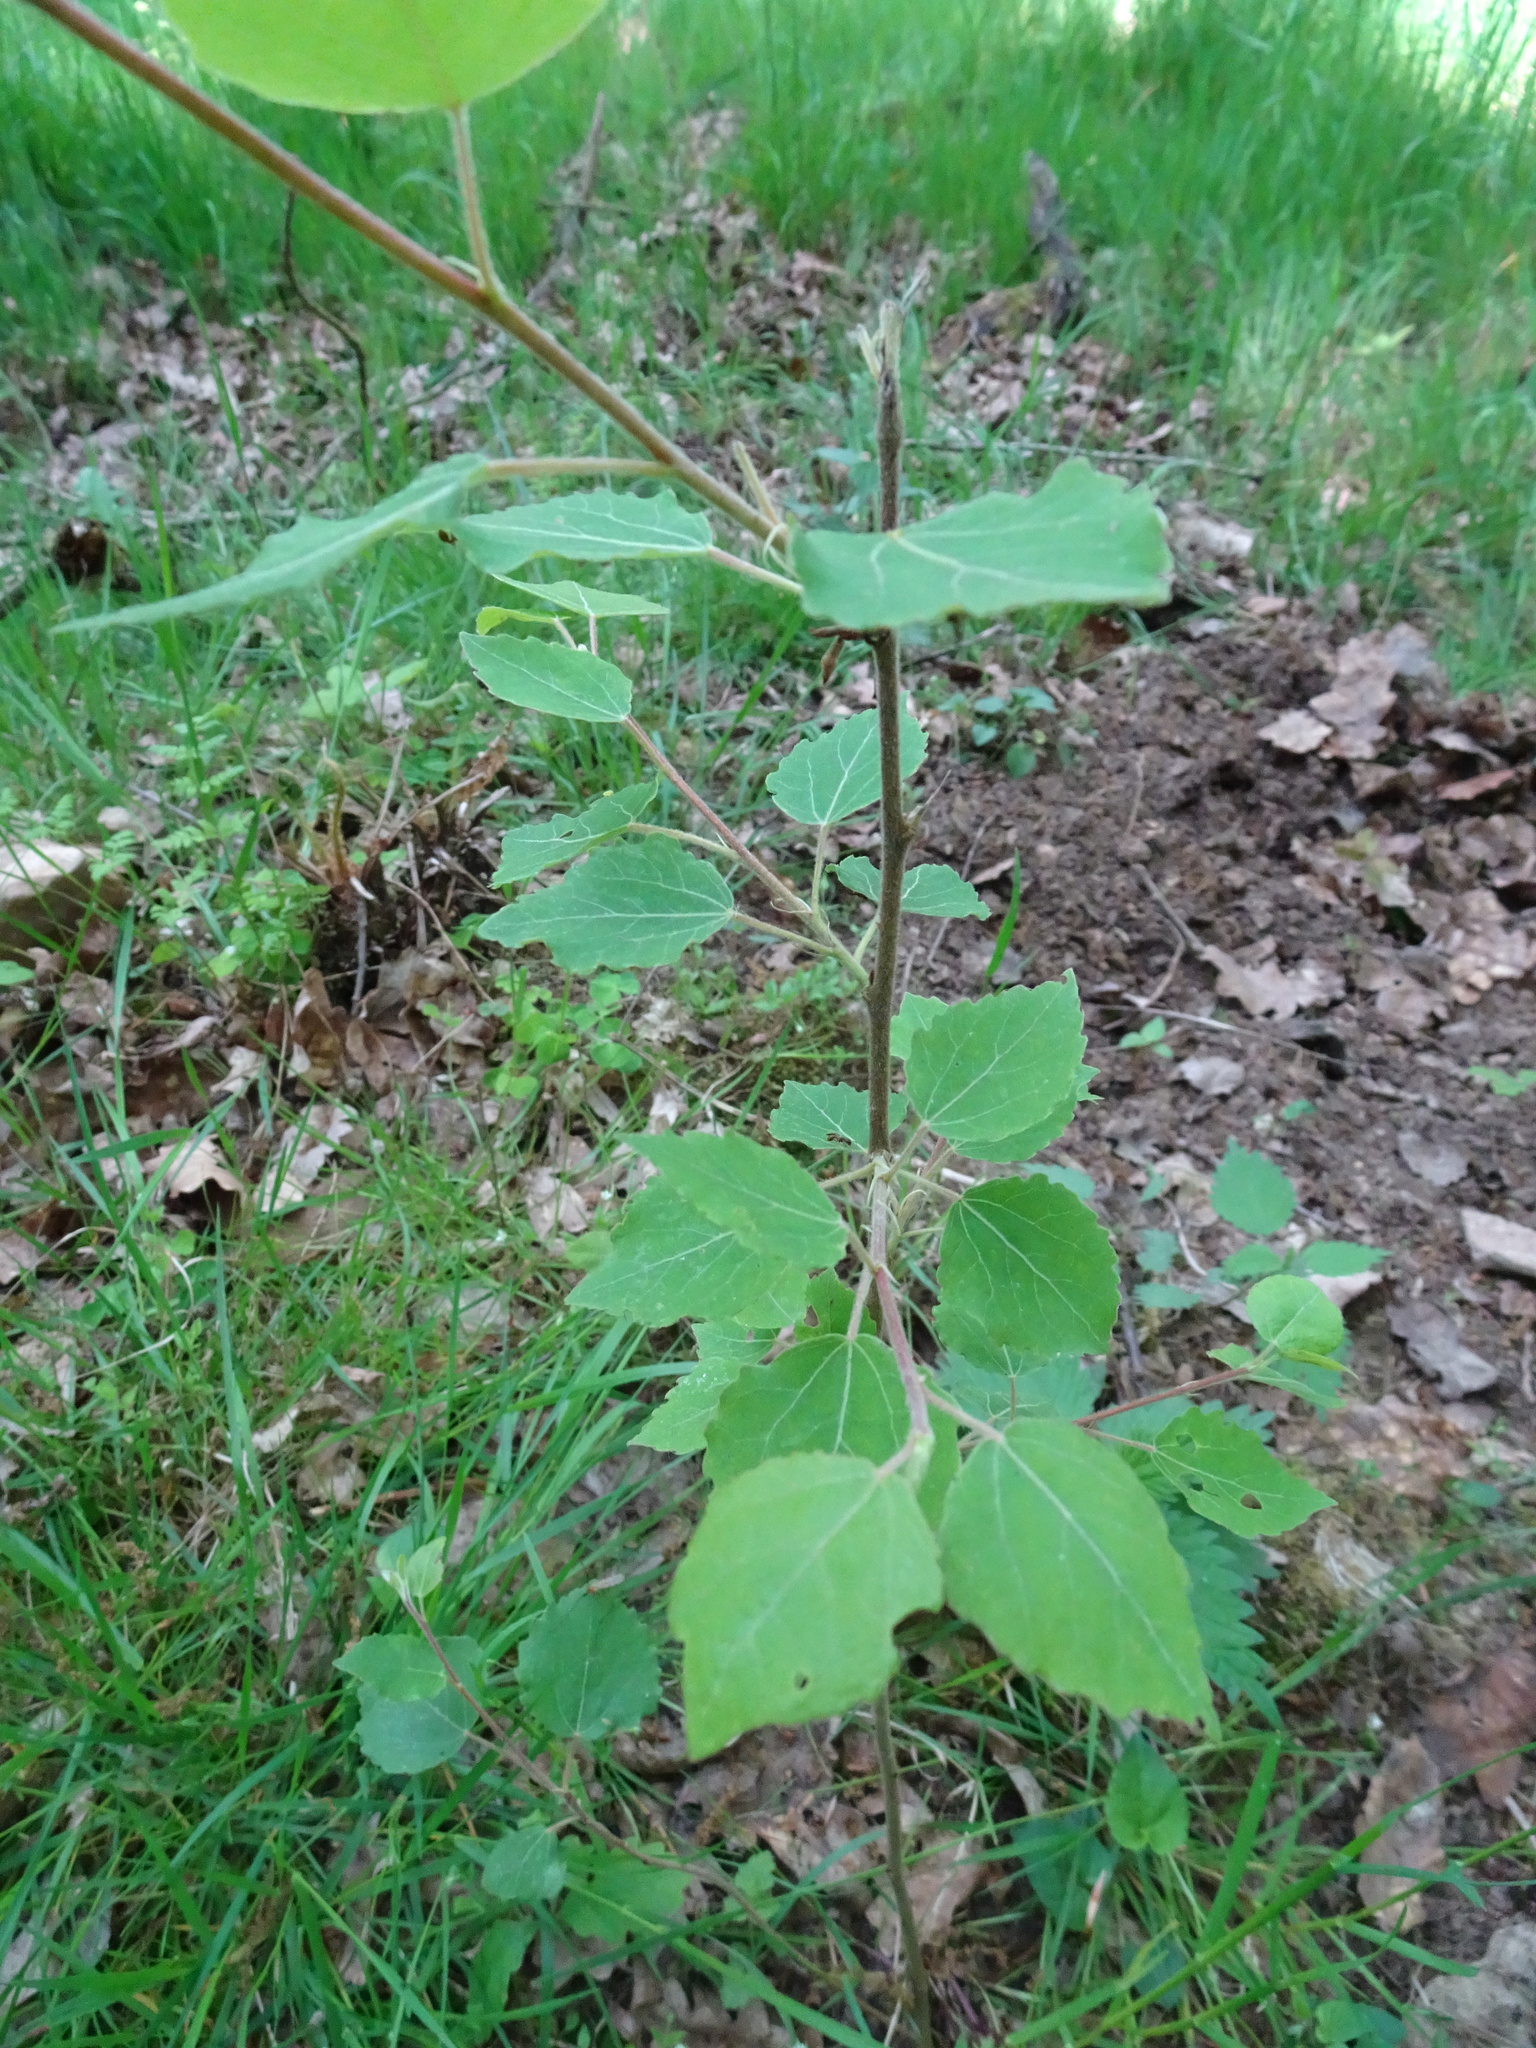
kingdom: Plantae
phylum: Tracheophyta
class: Magnoliopsida
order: Malpighiales
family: Salicaceae
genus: Populus
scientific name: Populus tremula
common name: European aspen
